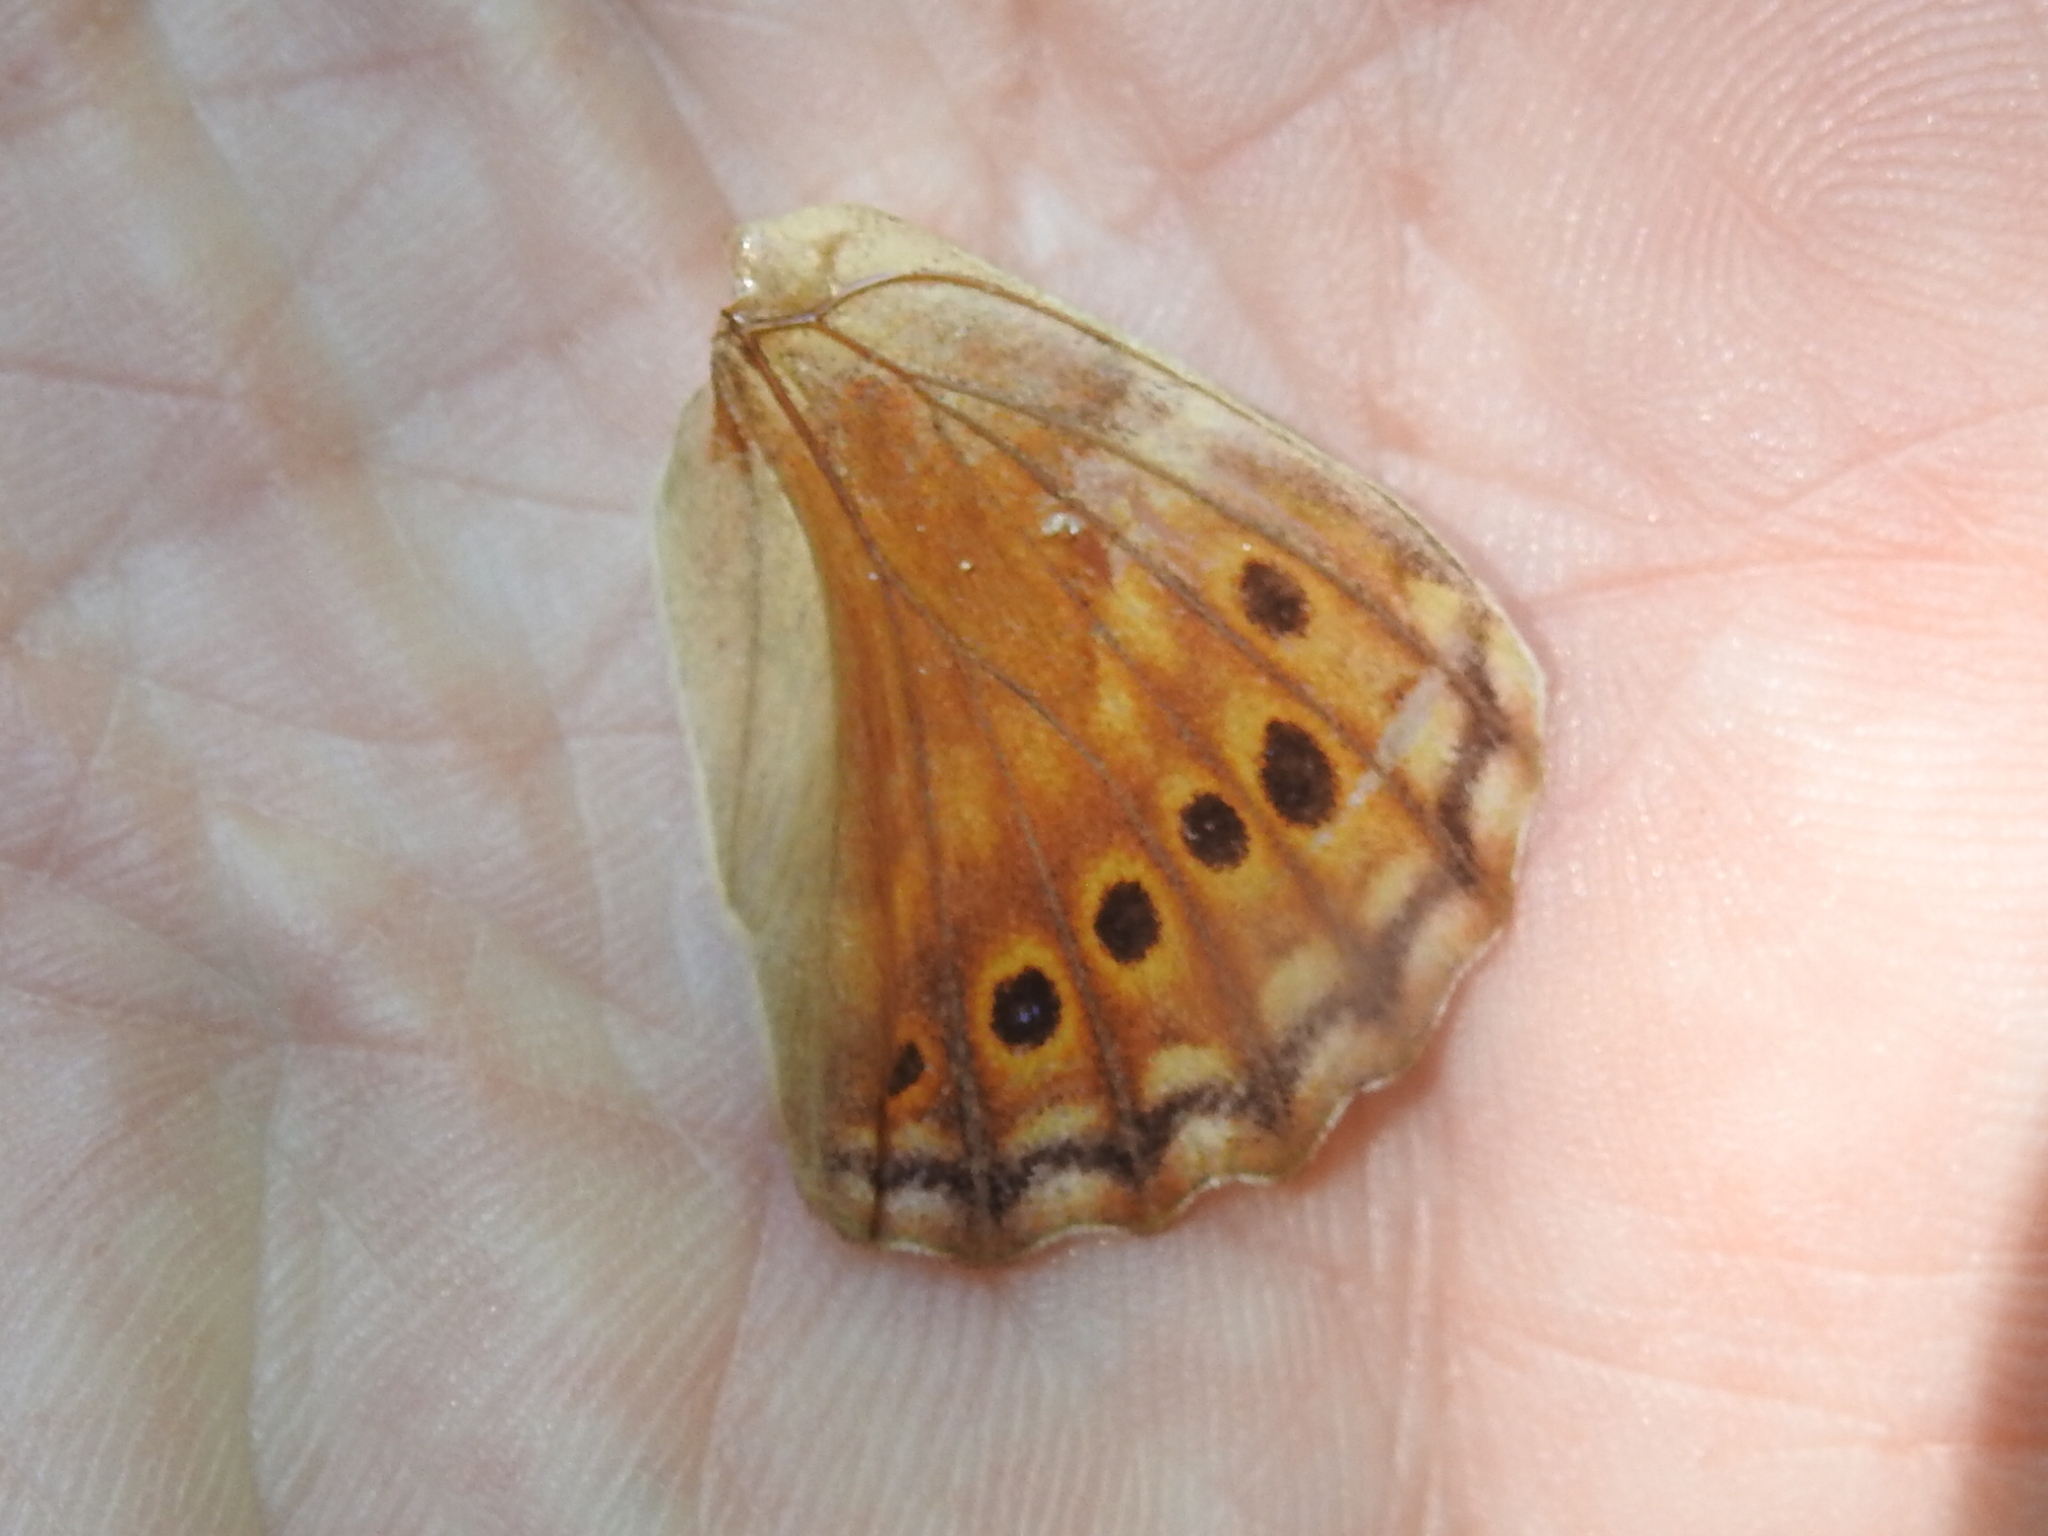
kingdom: Animalia
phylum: Arthropoda
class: Insecta
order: Lepidoptera
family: Nymphalidae
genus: Asterocampa
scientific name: Asterocampa clyton
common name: Tawny emperor
